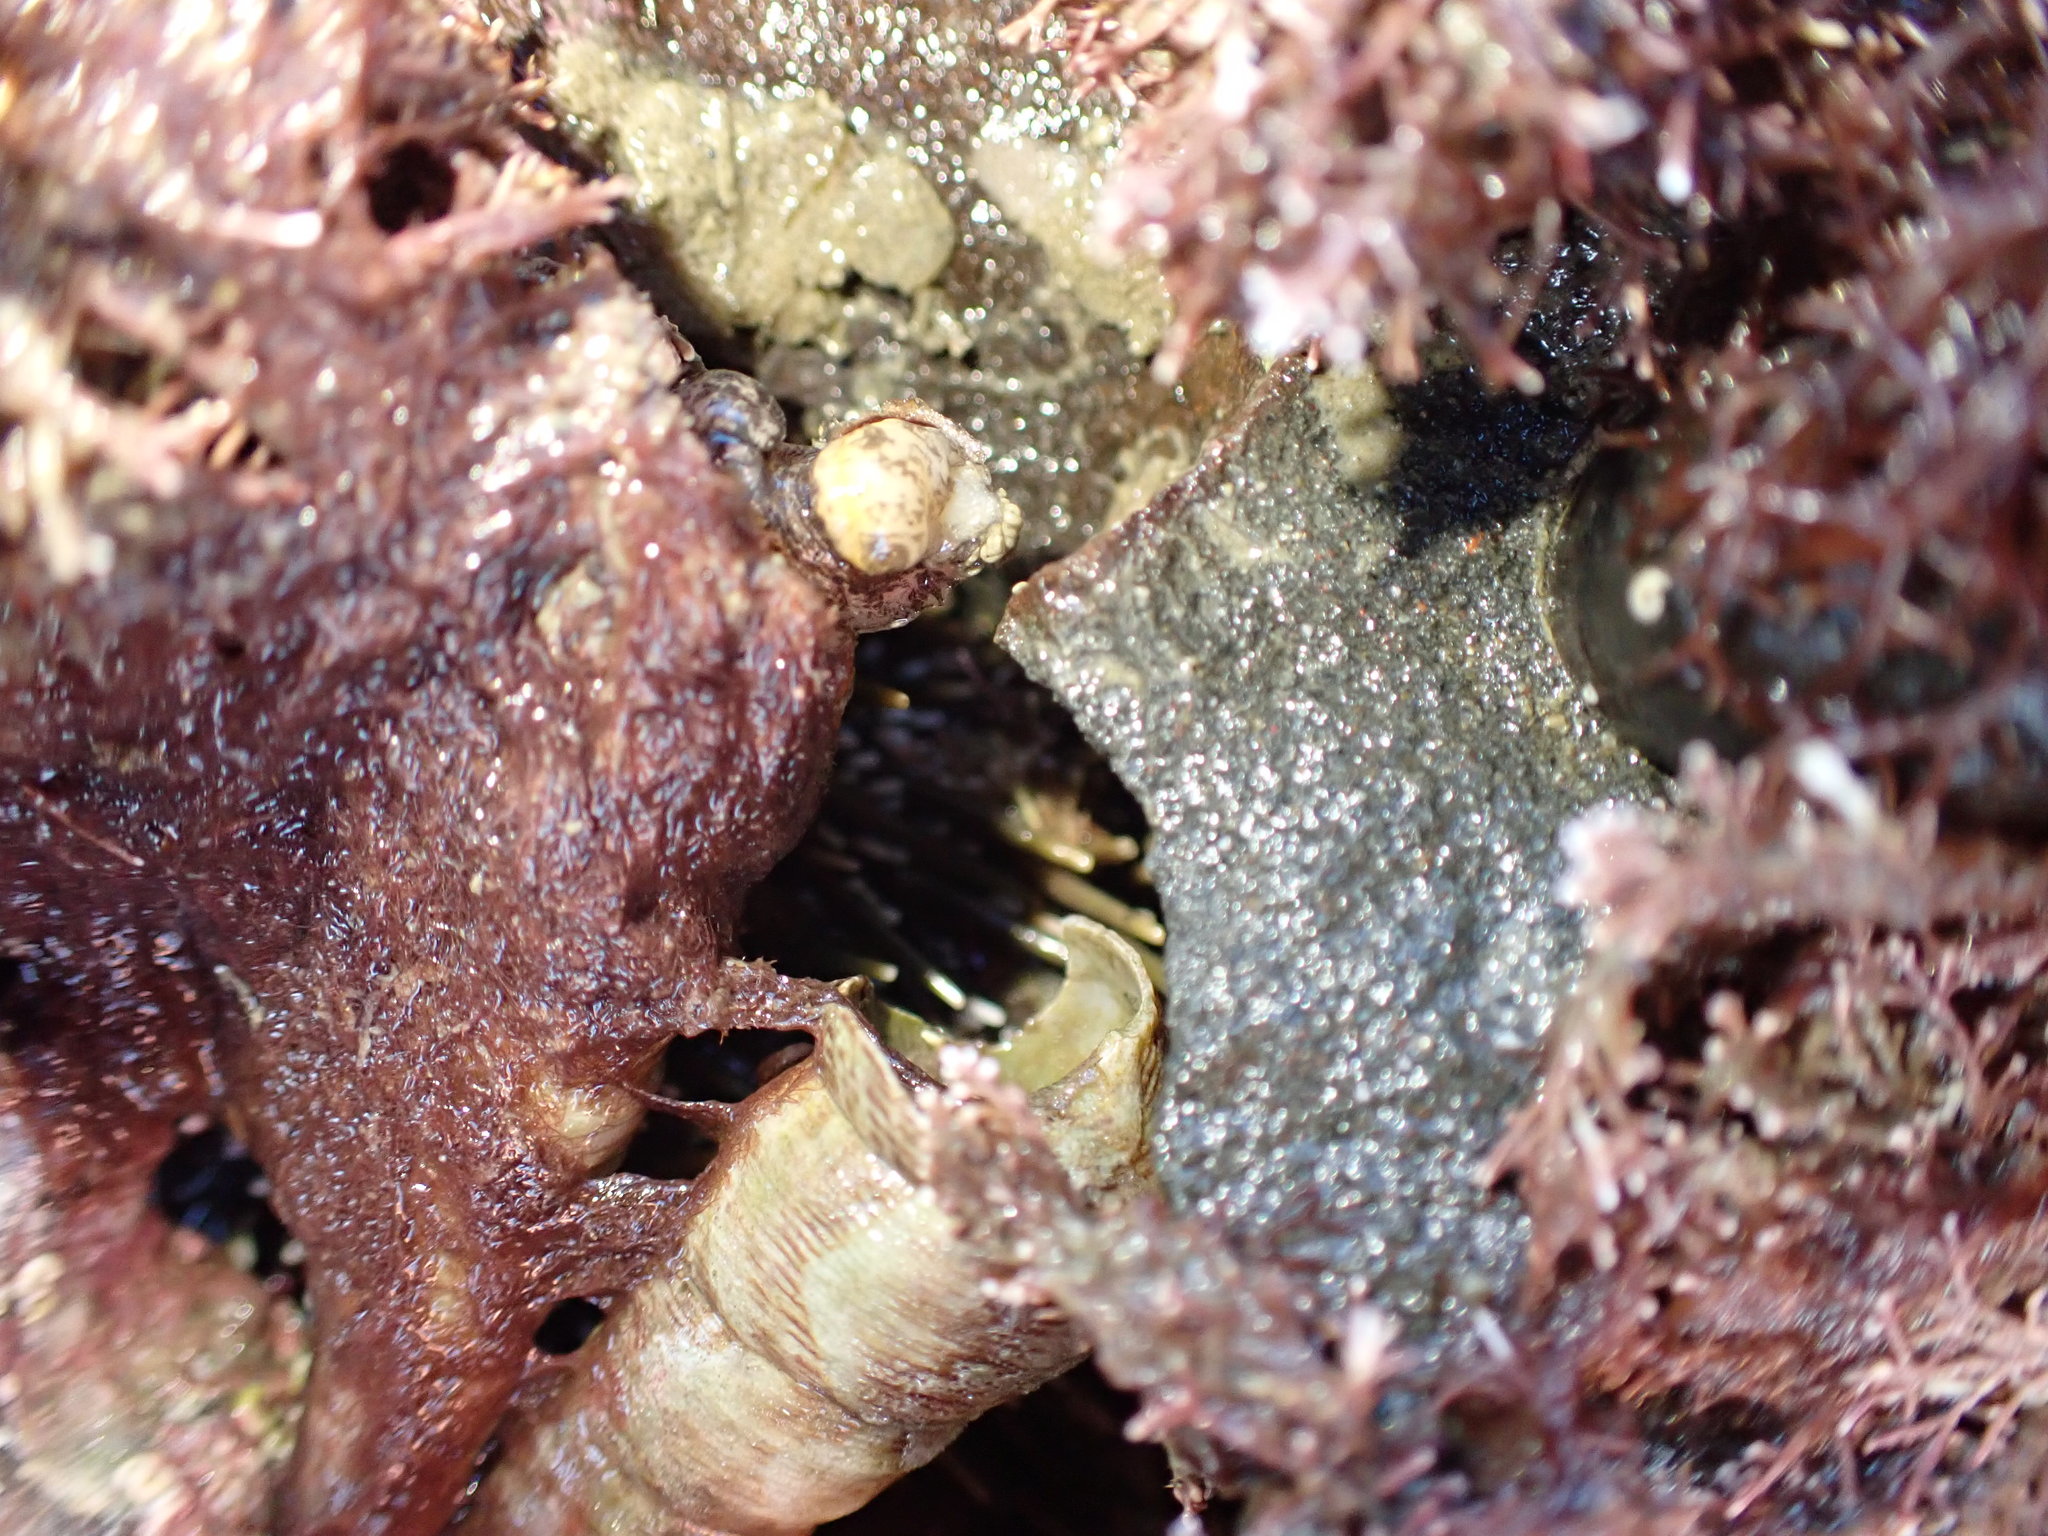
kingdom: Animalia
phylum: Echinodermata
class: Echinoidea
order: Camarodonta
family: Echinometridae
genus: Evechinus
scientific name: Evechinus chloroticus
